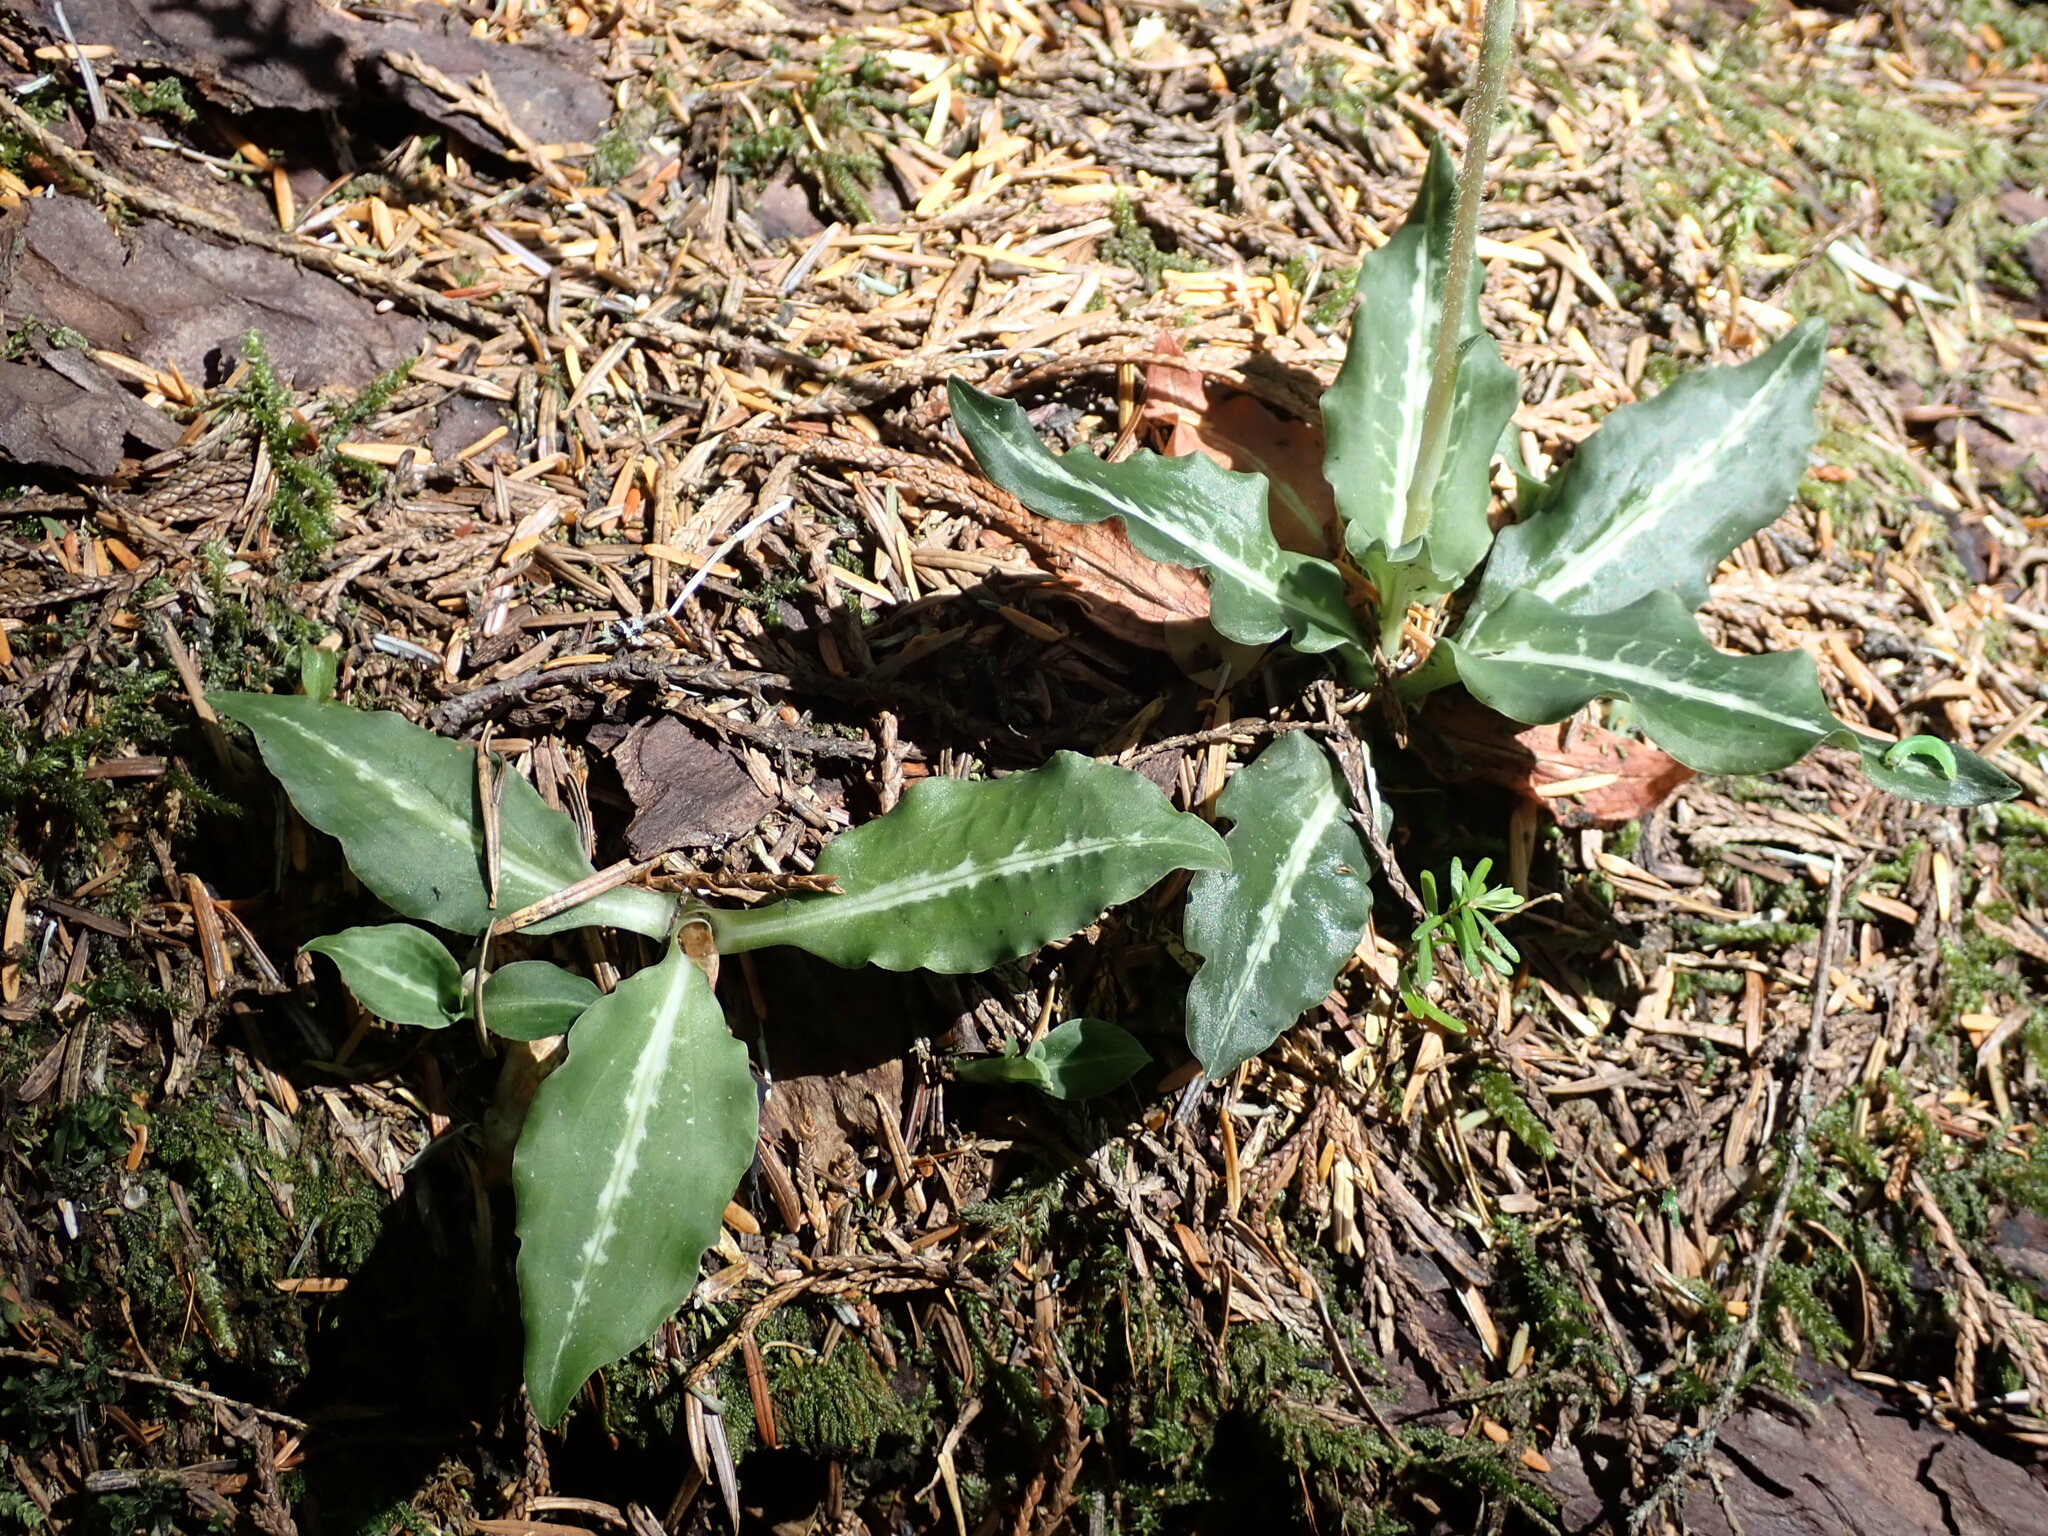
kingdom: Plantae
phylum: Tracheophyta
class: Liliopsida
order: Asparagales
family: Orchidaceae
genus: Goodyera
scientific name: Goodyera oblongifolia
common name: Giant rattlesnake-plantain
